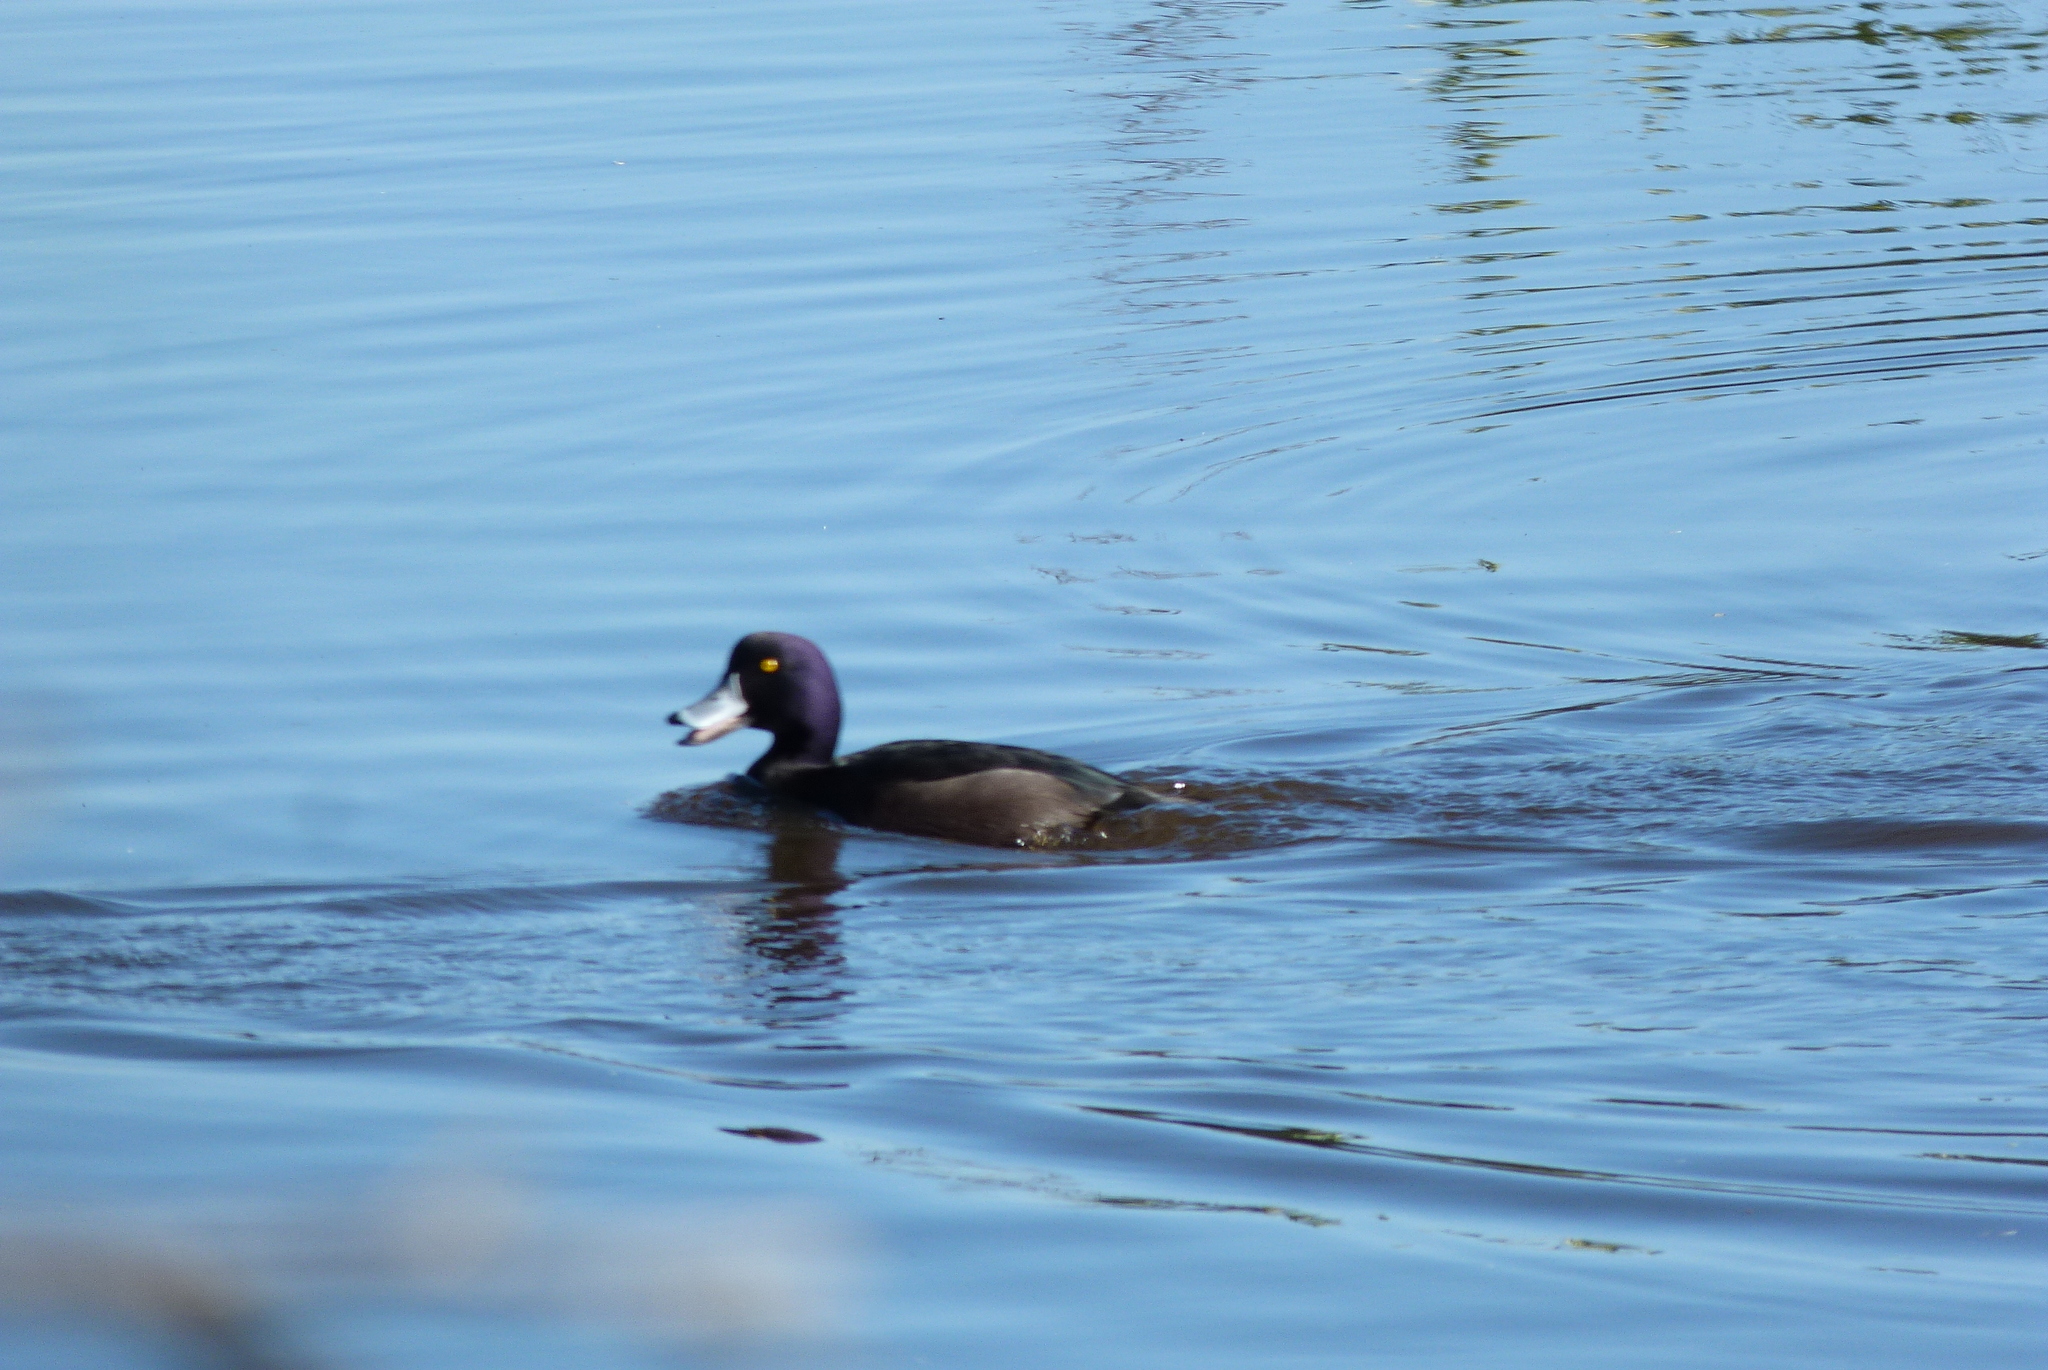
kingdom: Animalia
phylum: Chordata
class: Aves
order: Anseriformes
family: Anatidae
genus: Aythya
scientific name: Aythya novaeseelandiae
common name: New zealand scaup
